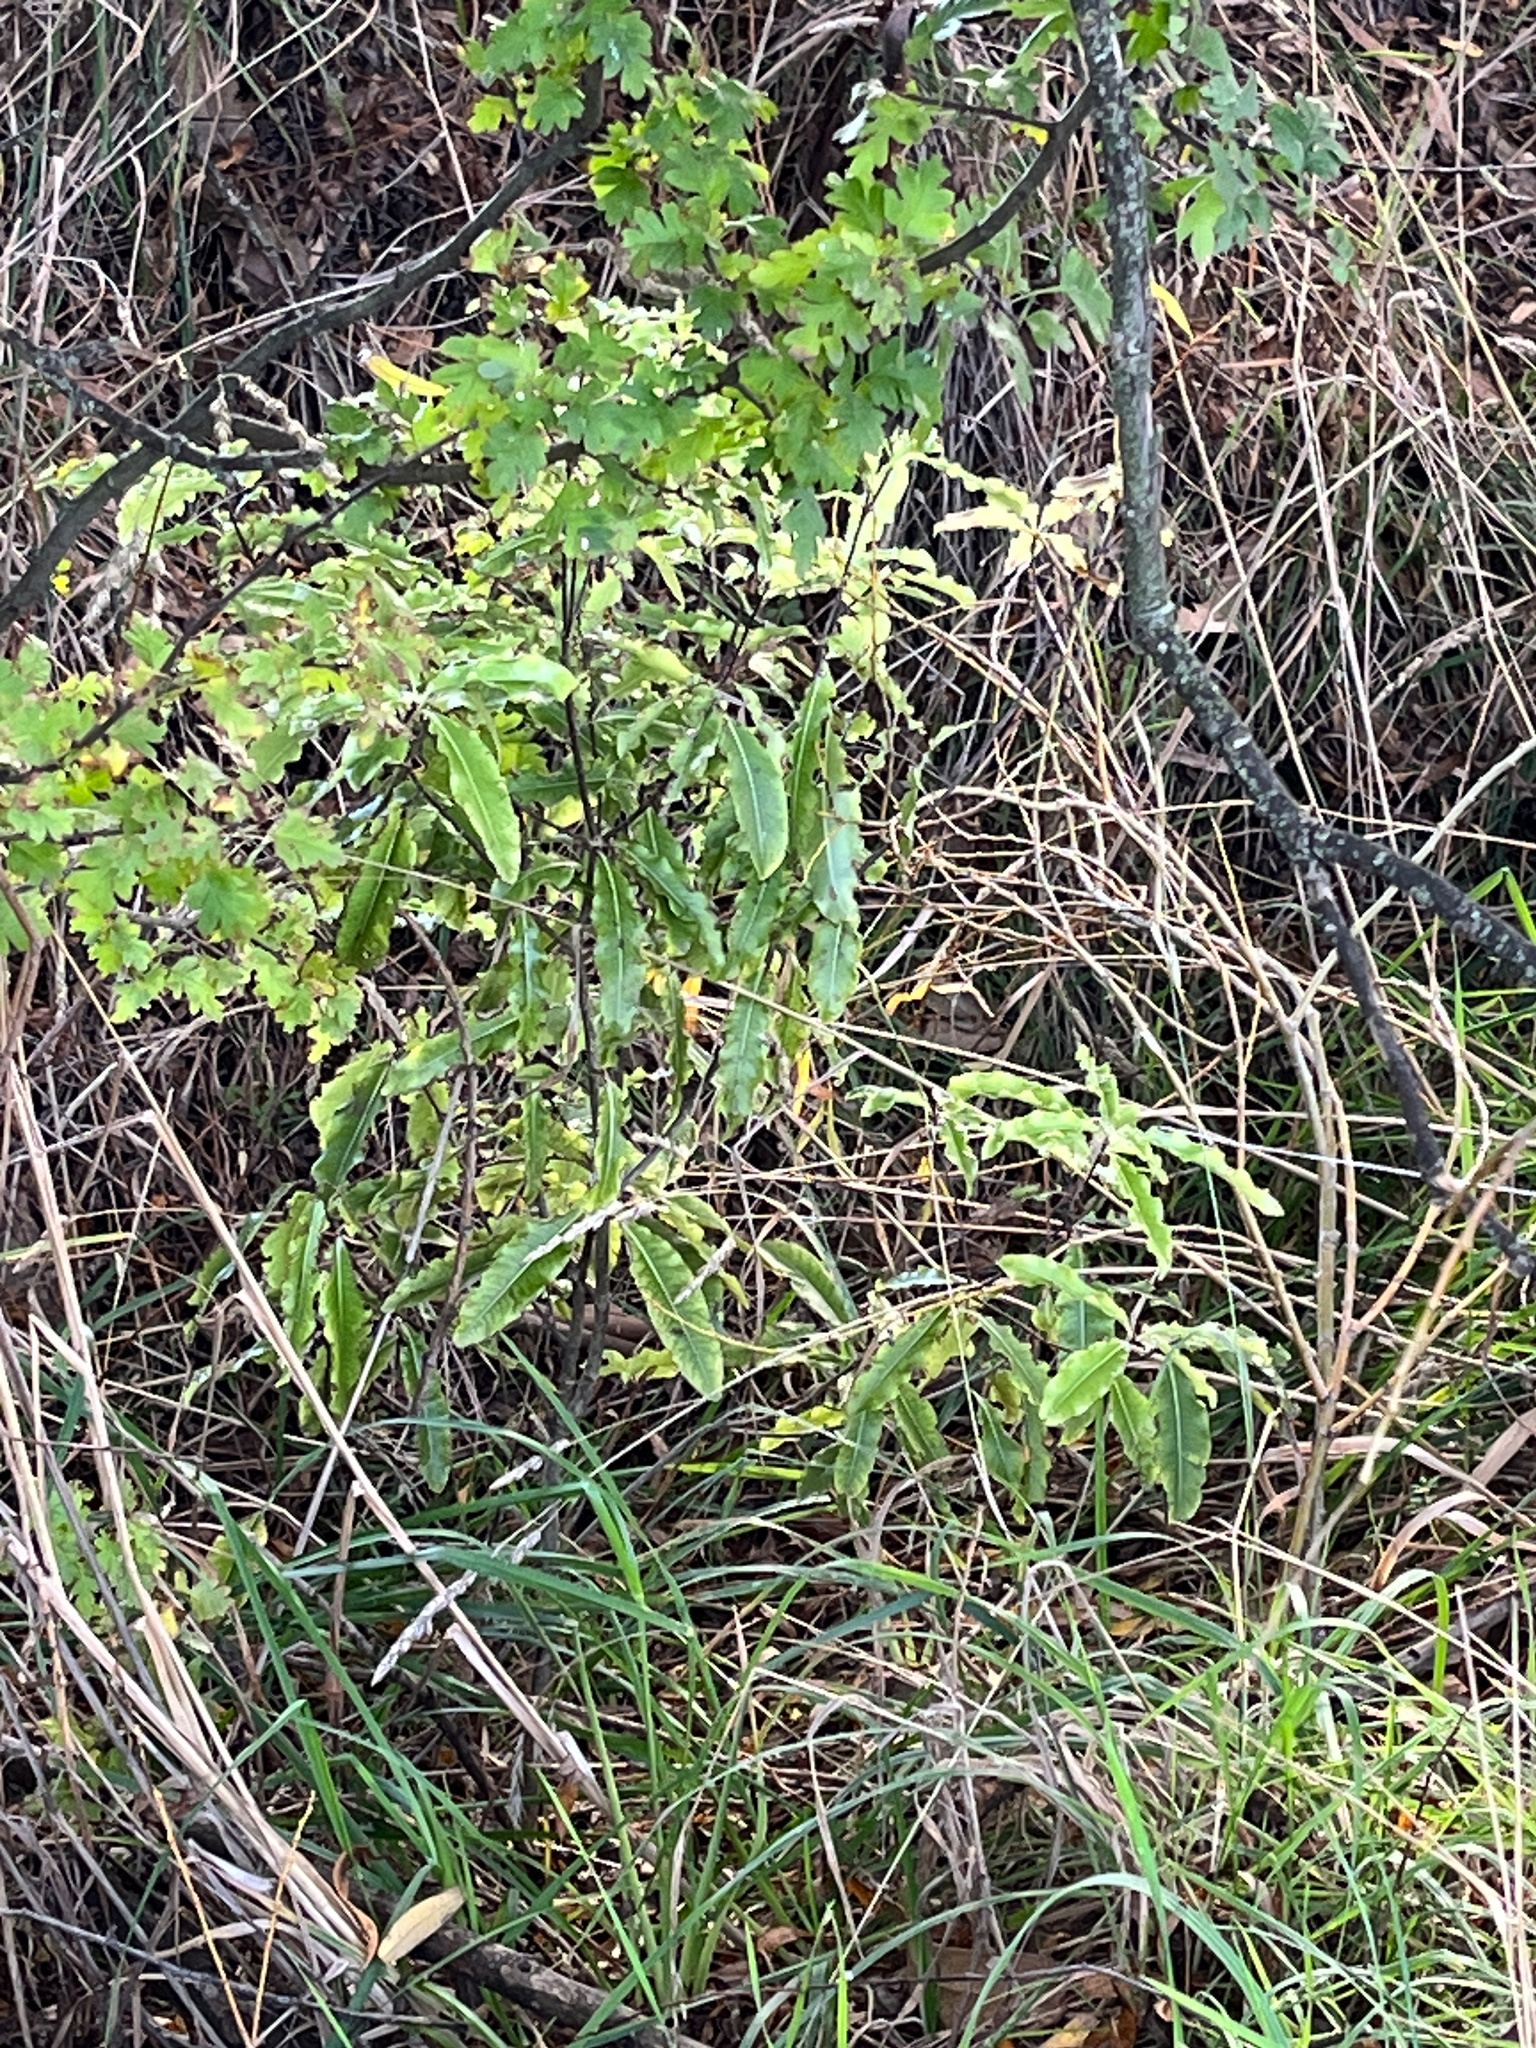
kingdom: Plantae
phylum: Tracheophyta
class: Magnoliopsida
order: Apiales
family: Pittosporaceae
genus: Pittosporum
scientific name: Pittosporum eugenioides
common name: Lemonwood
